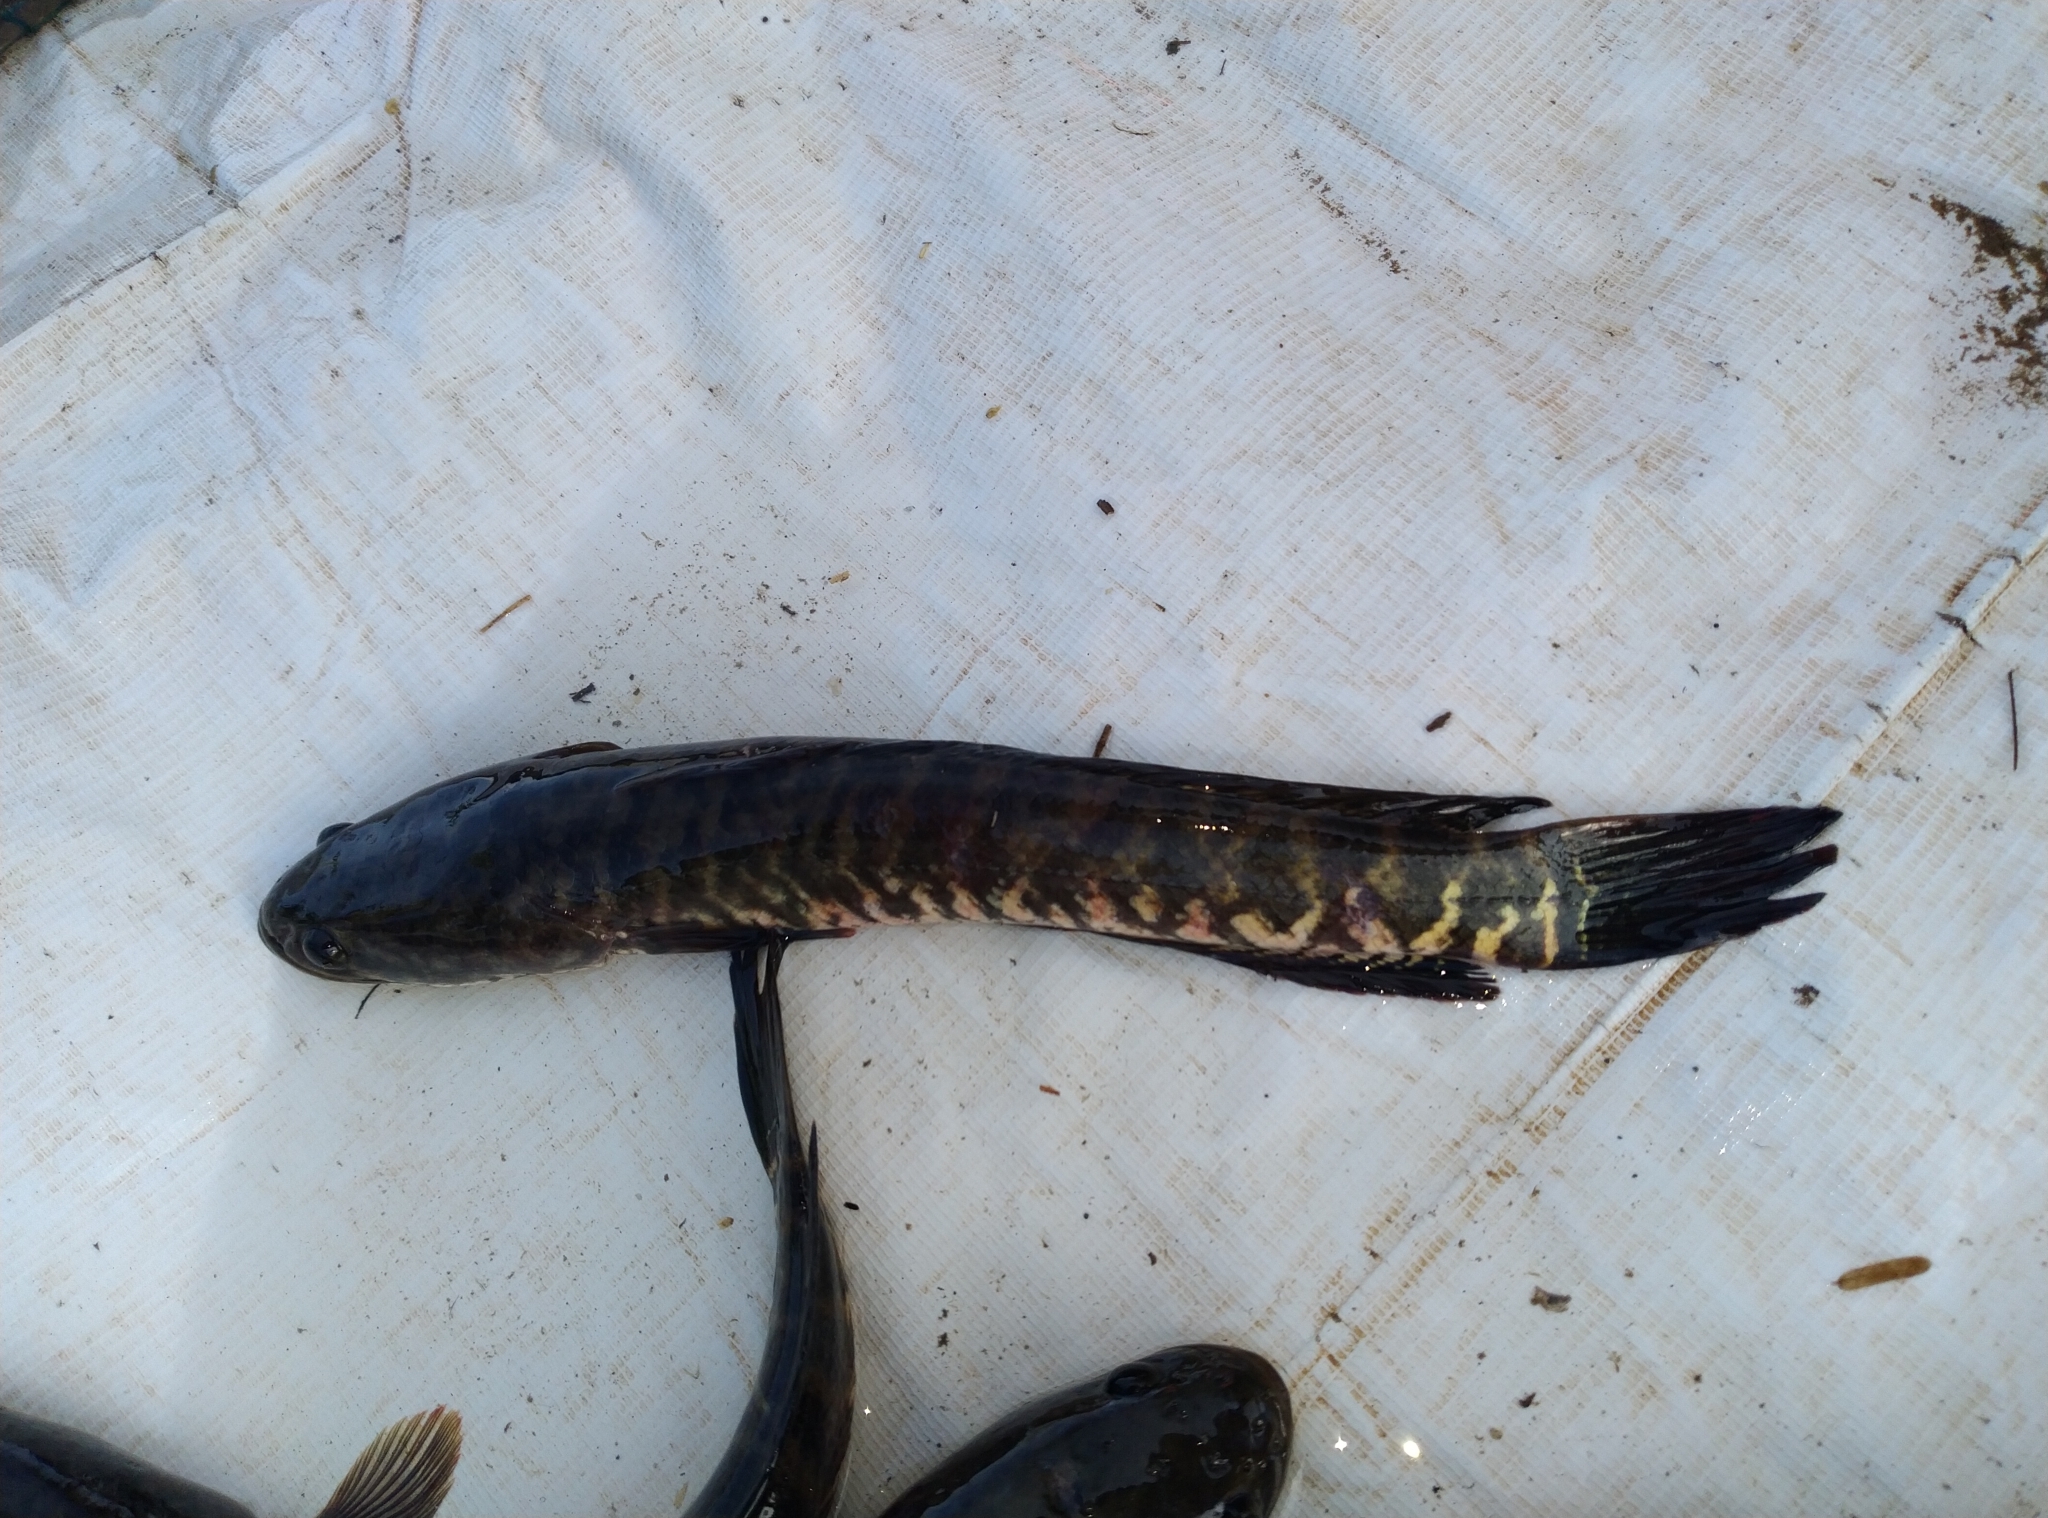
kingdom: Animalia
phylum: Chordata
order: Perciformes
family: Channidae
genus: Channa
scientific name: Channa striata
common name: Striped snakehead
